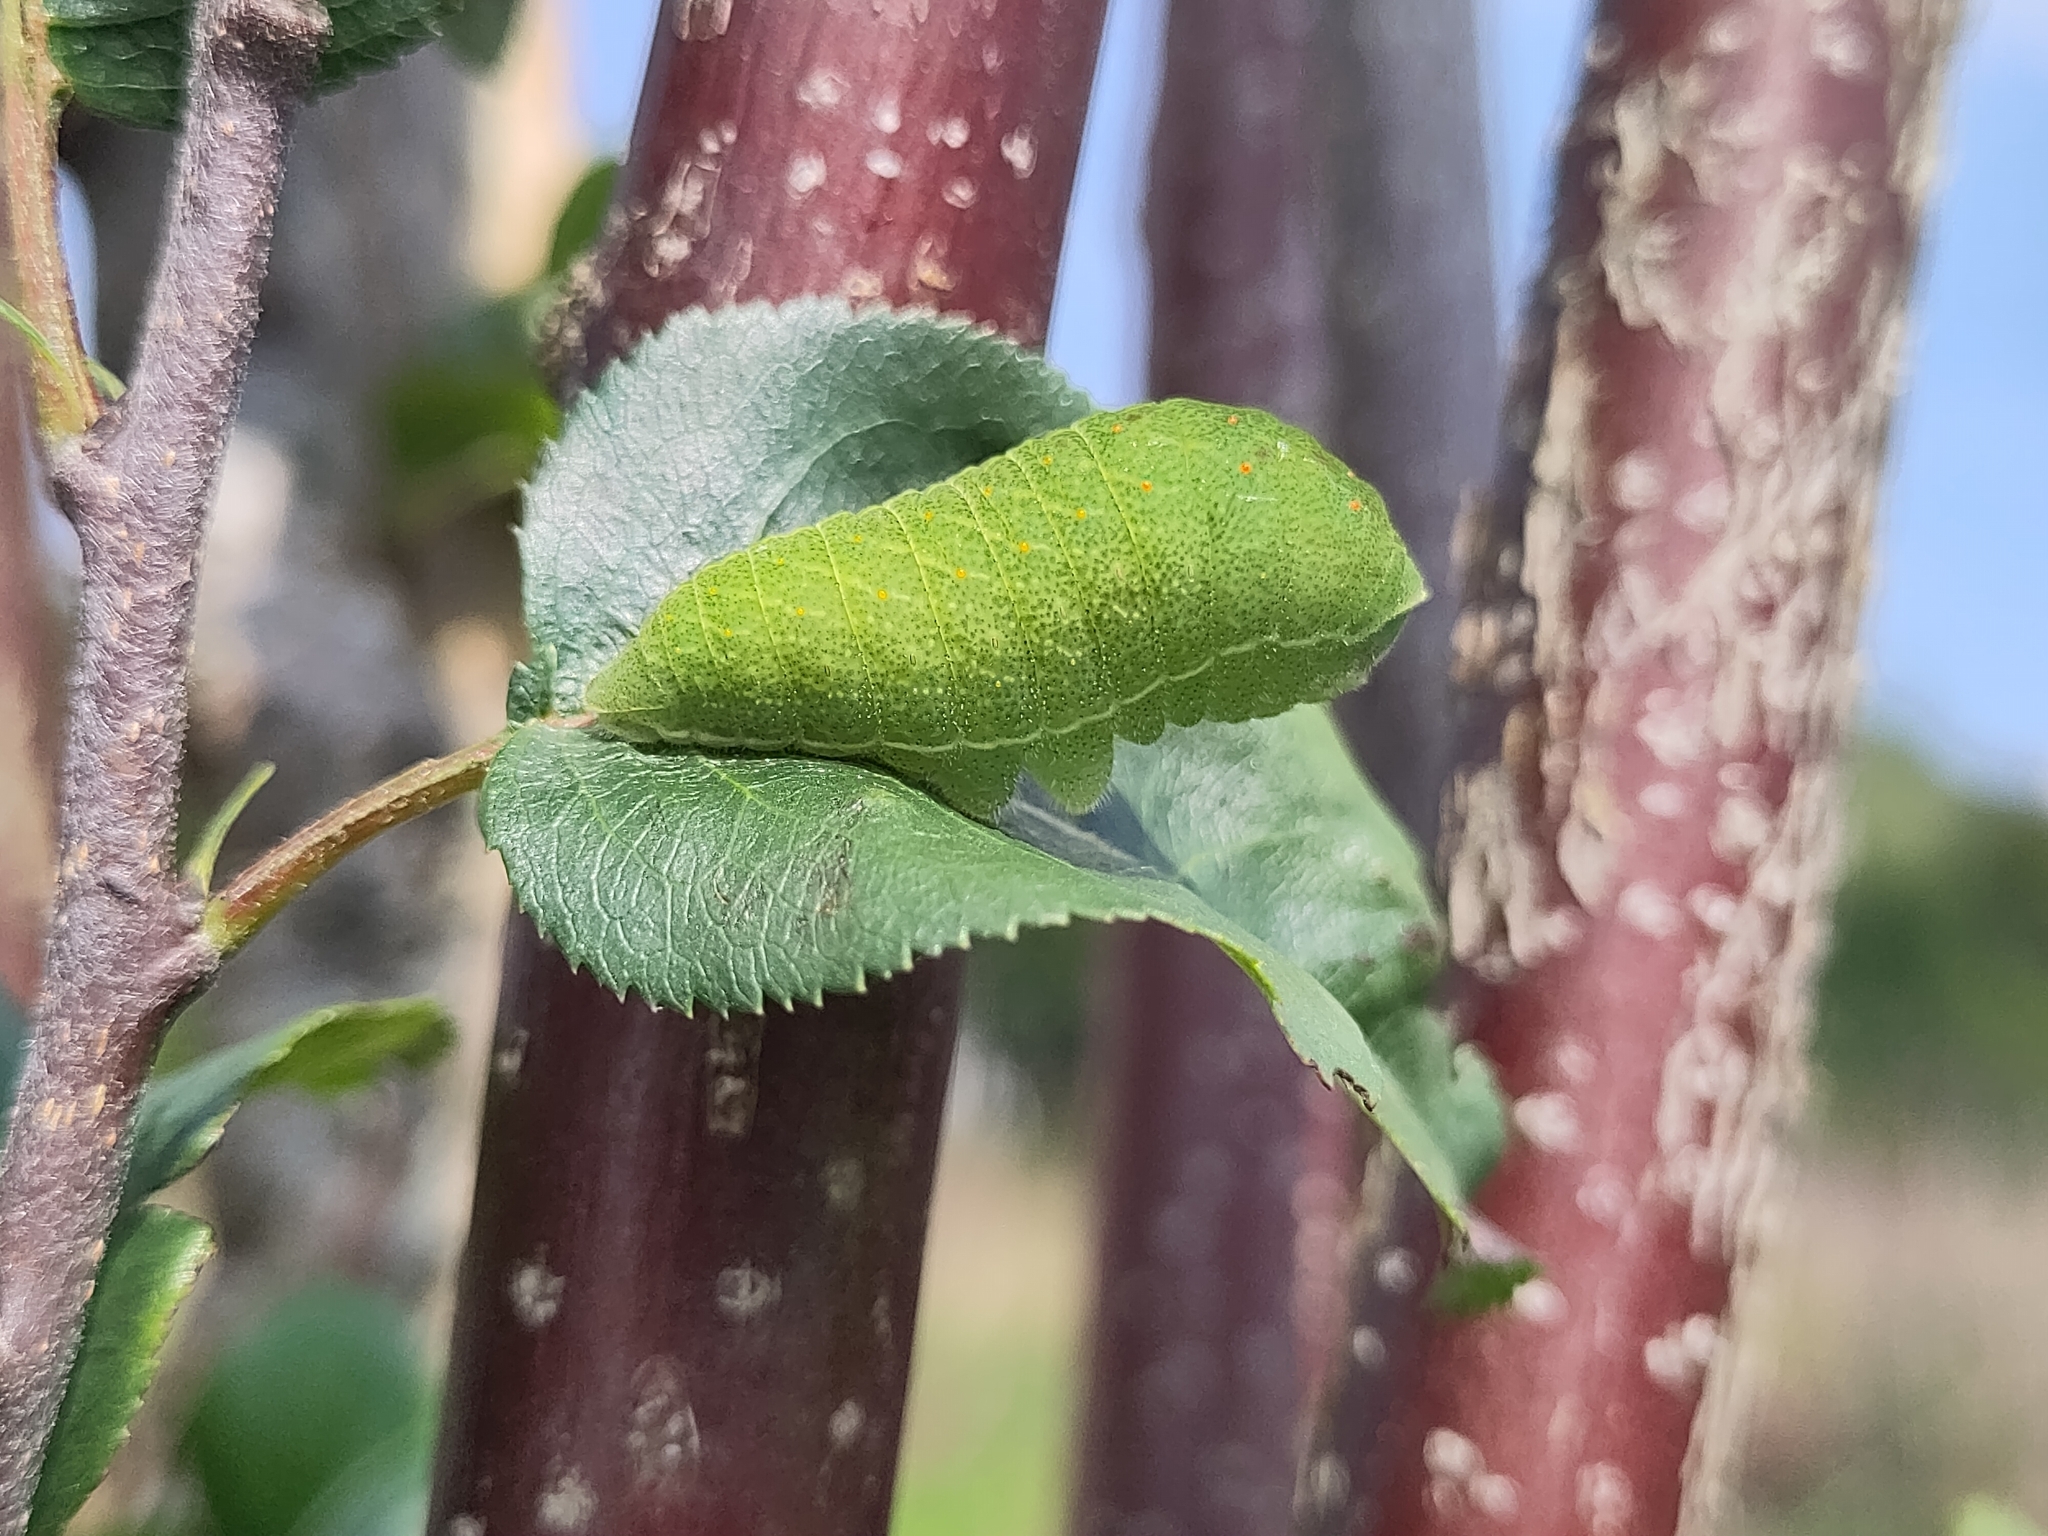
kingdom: Animalia
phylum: Arthropoda
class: Insecta
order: Lepidoptera
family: Papilionidae
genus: Iphiclides
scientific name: Iphiclides podalirius
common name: Scarce swallowtail
